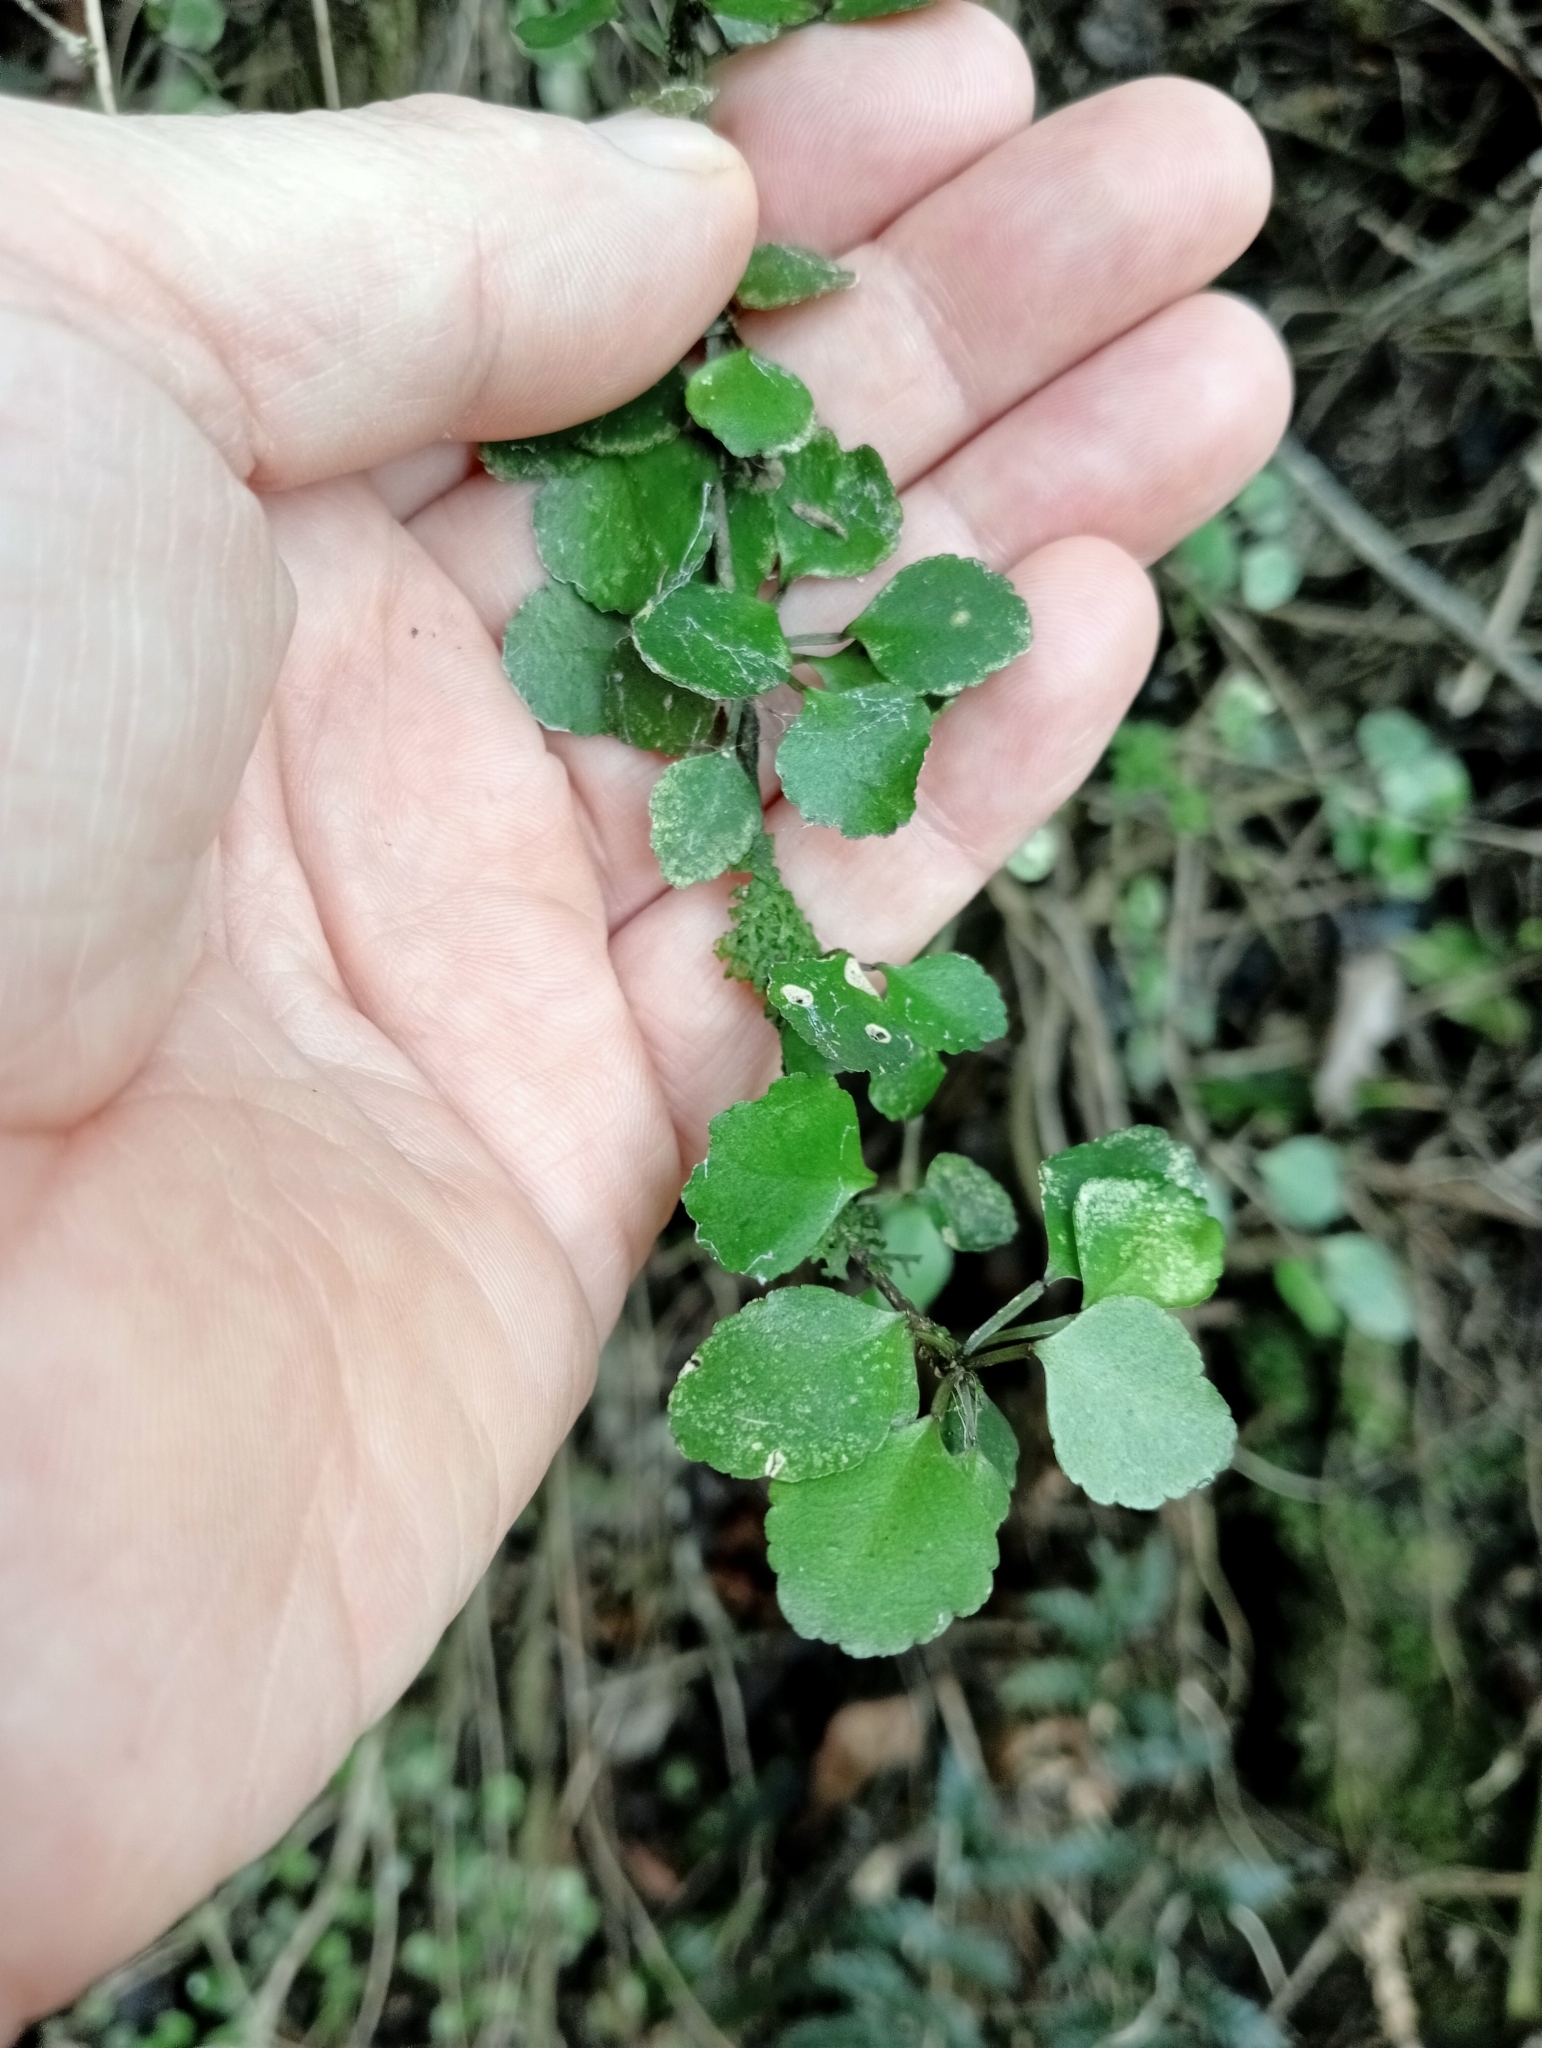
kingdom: Plantae
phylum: Tracheophyta
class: Magnoliopsida
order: Sapindales
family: Rutaceae
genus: Melicope
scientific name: Melicope simplex
